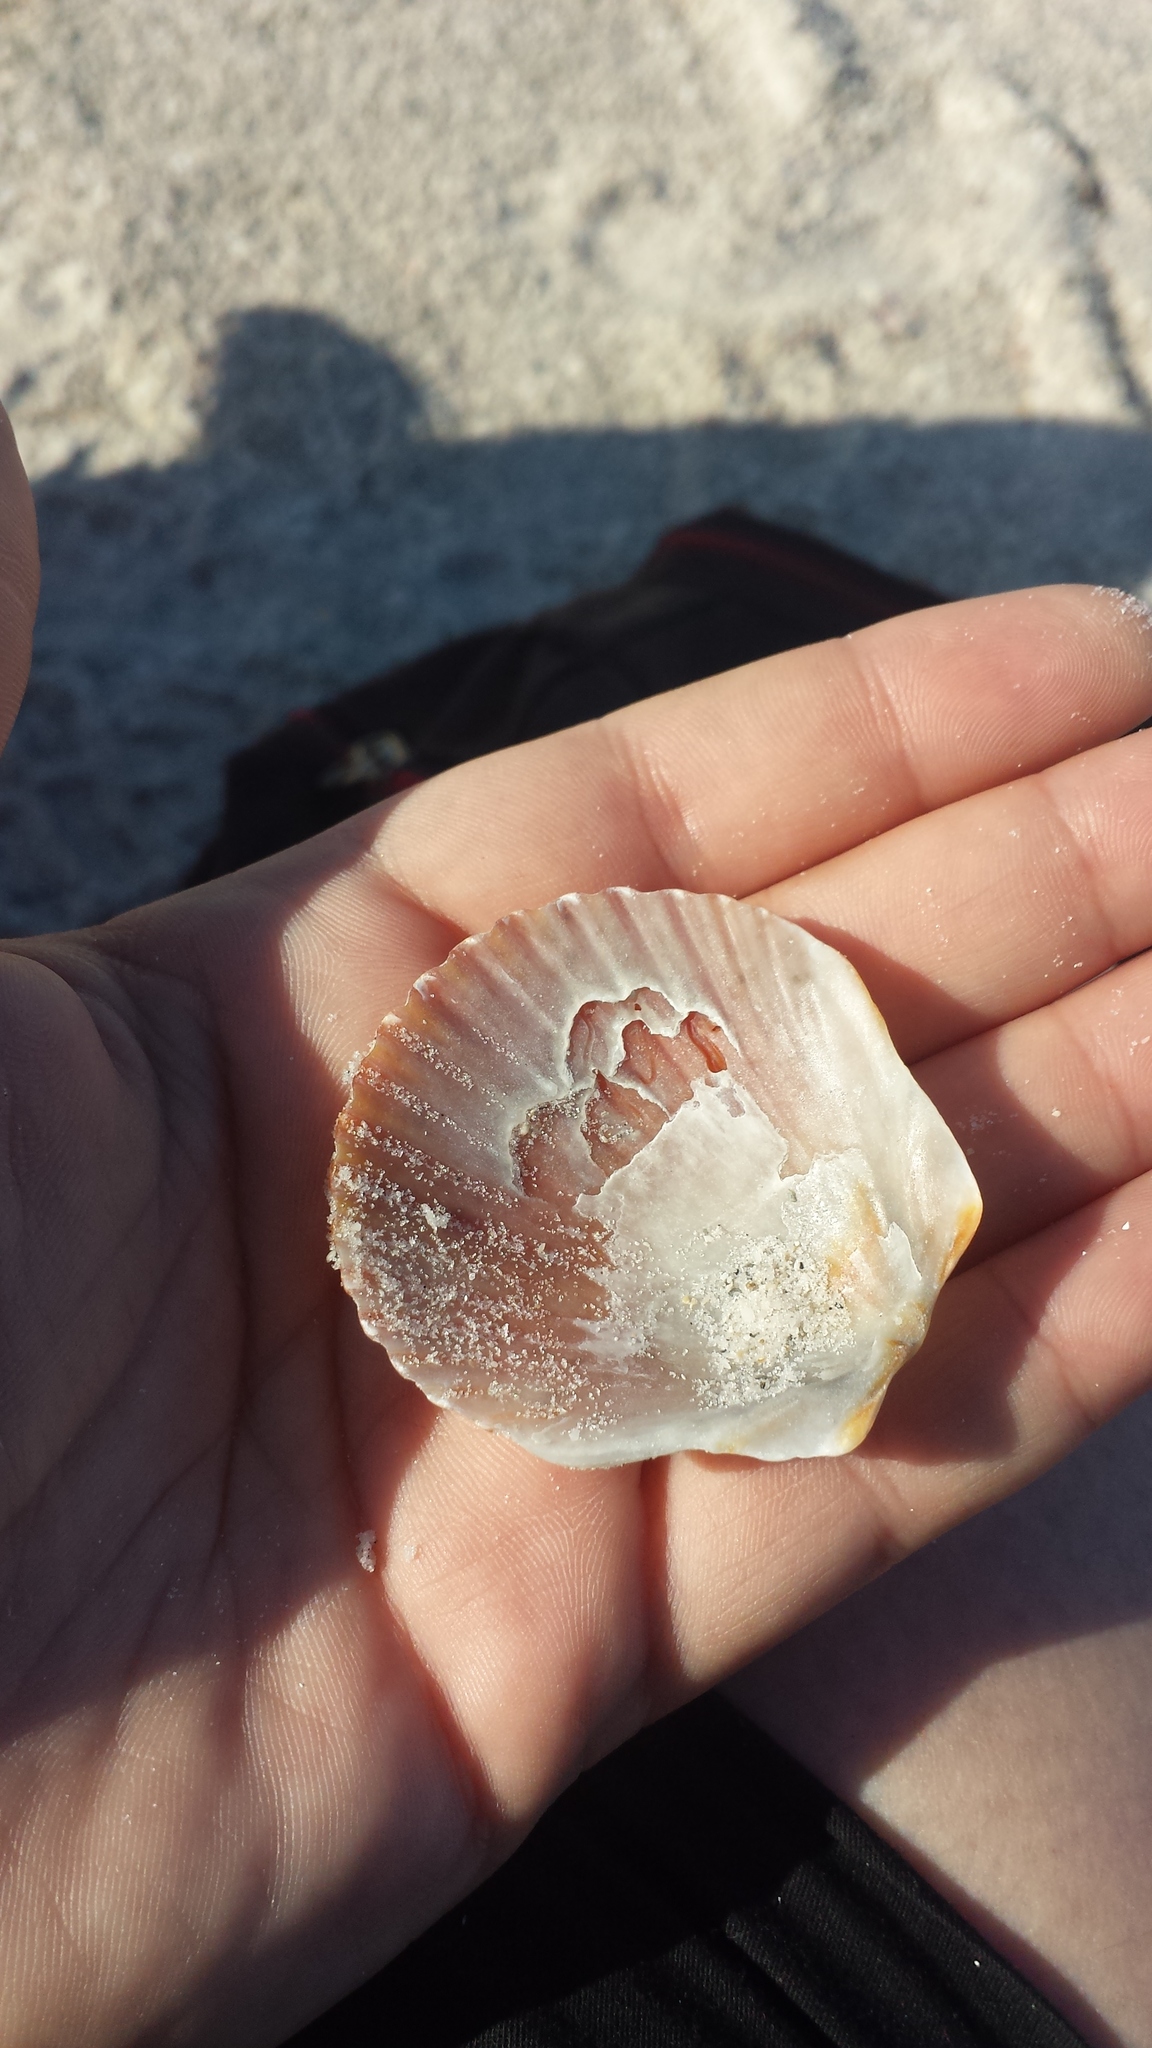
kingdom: Animalia
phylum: Mollusca
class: Bivalvia
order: Pectinida
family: Pectinidae
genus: Argopecten
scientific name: Argopecten irradians
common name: Atlantic bay scallop
